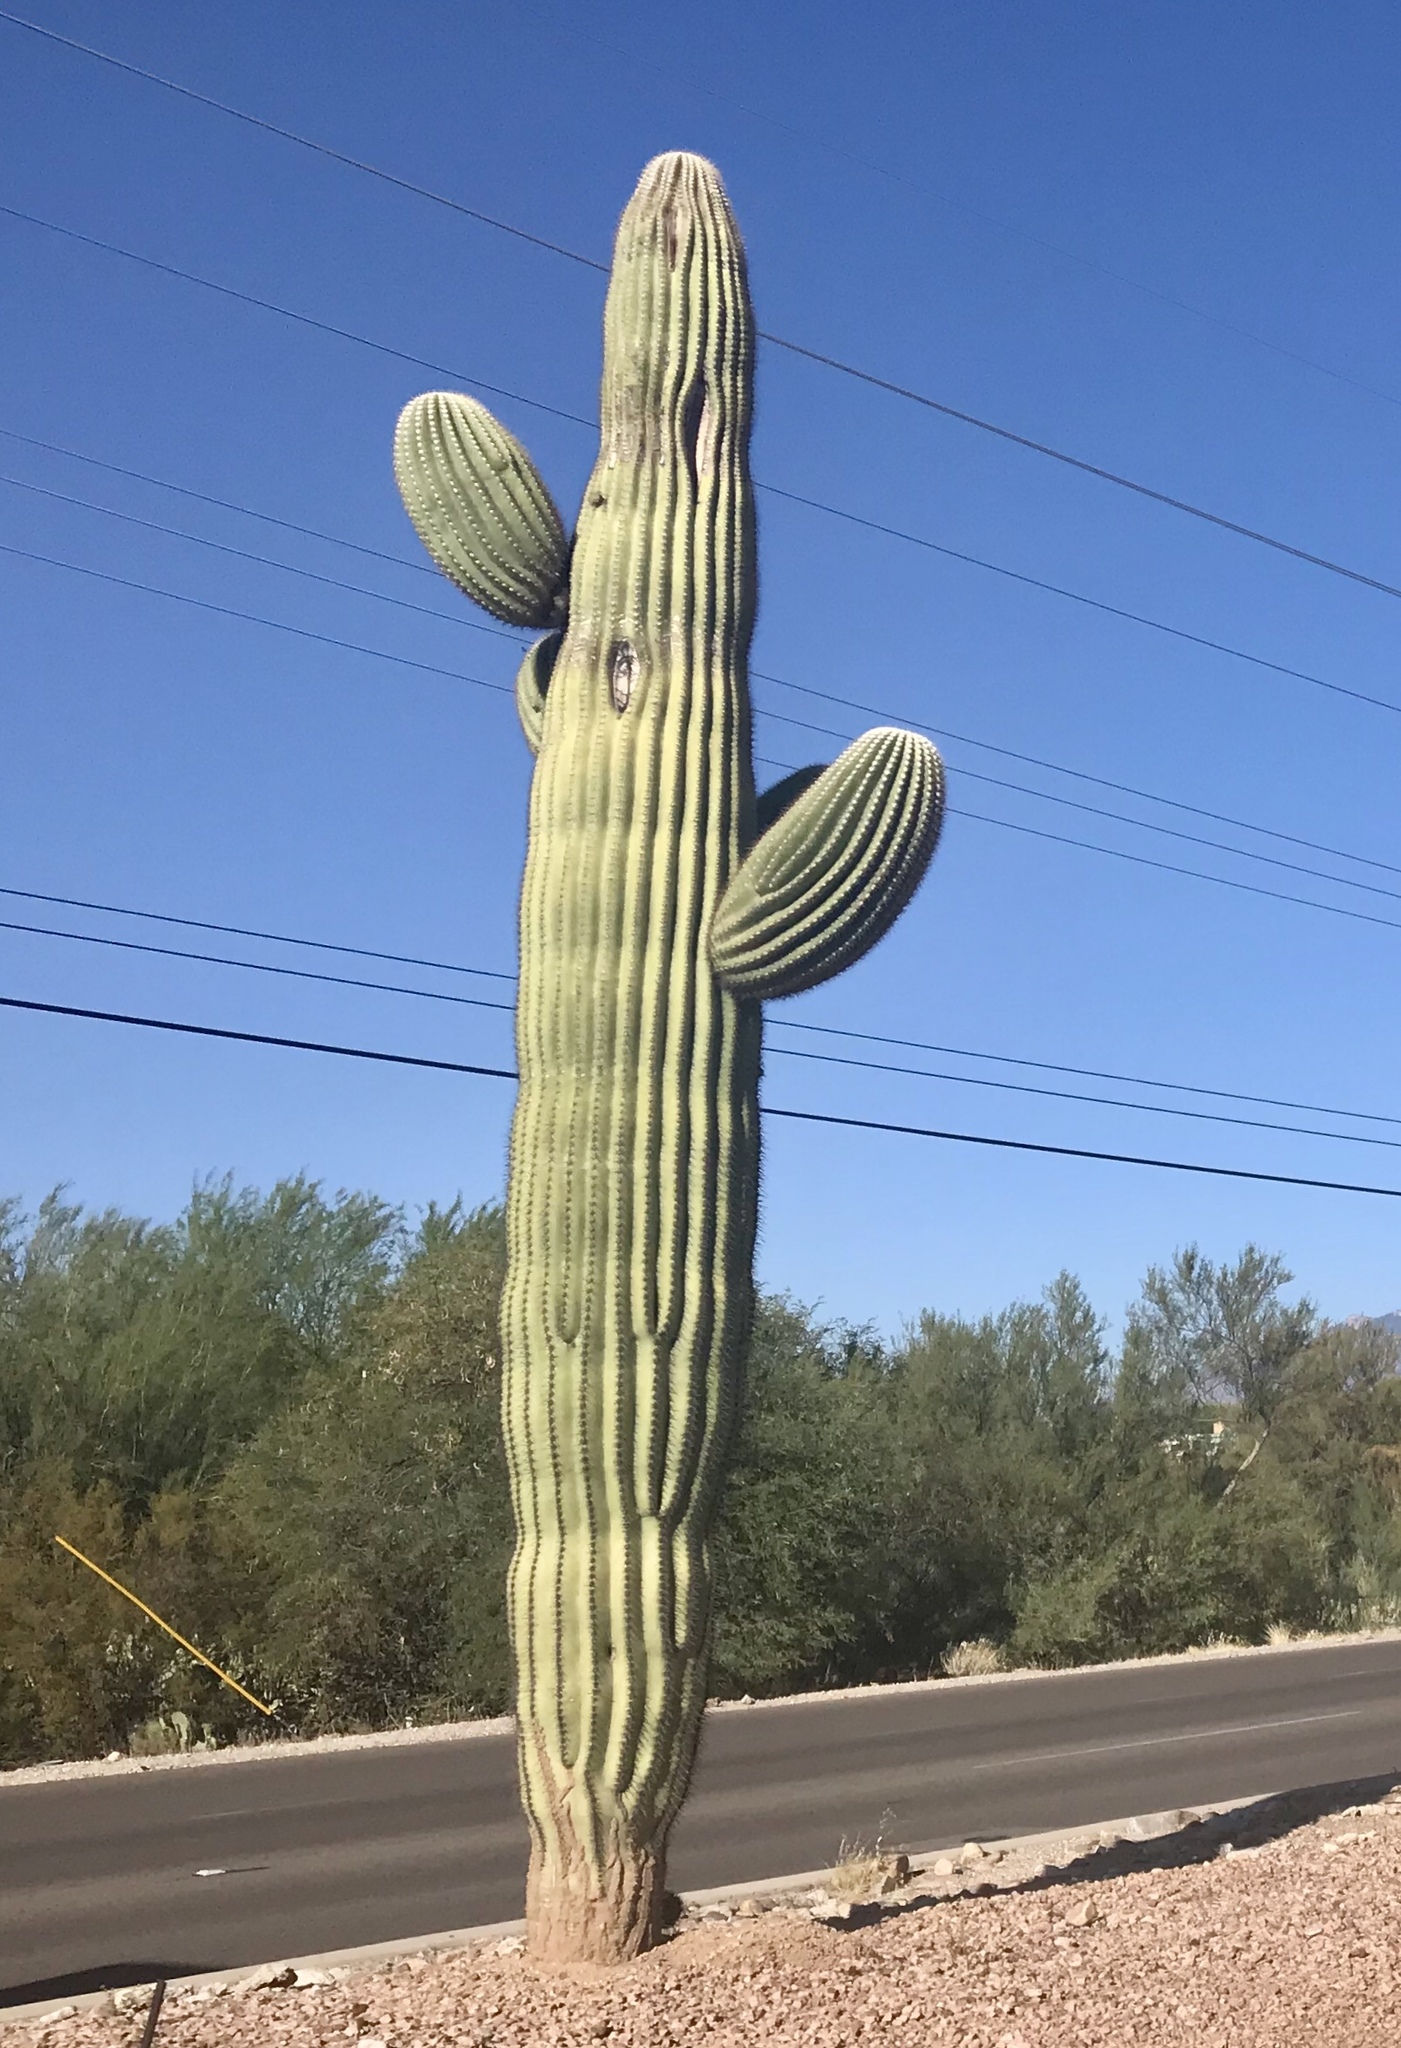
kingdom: Plantae
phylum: Tracheophyta
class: Magnoliopsida
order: Caryophyllales
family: Cactaceae
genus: Carnegiea
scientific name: Carnegiea gigantea
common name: Saguaro
